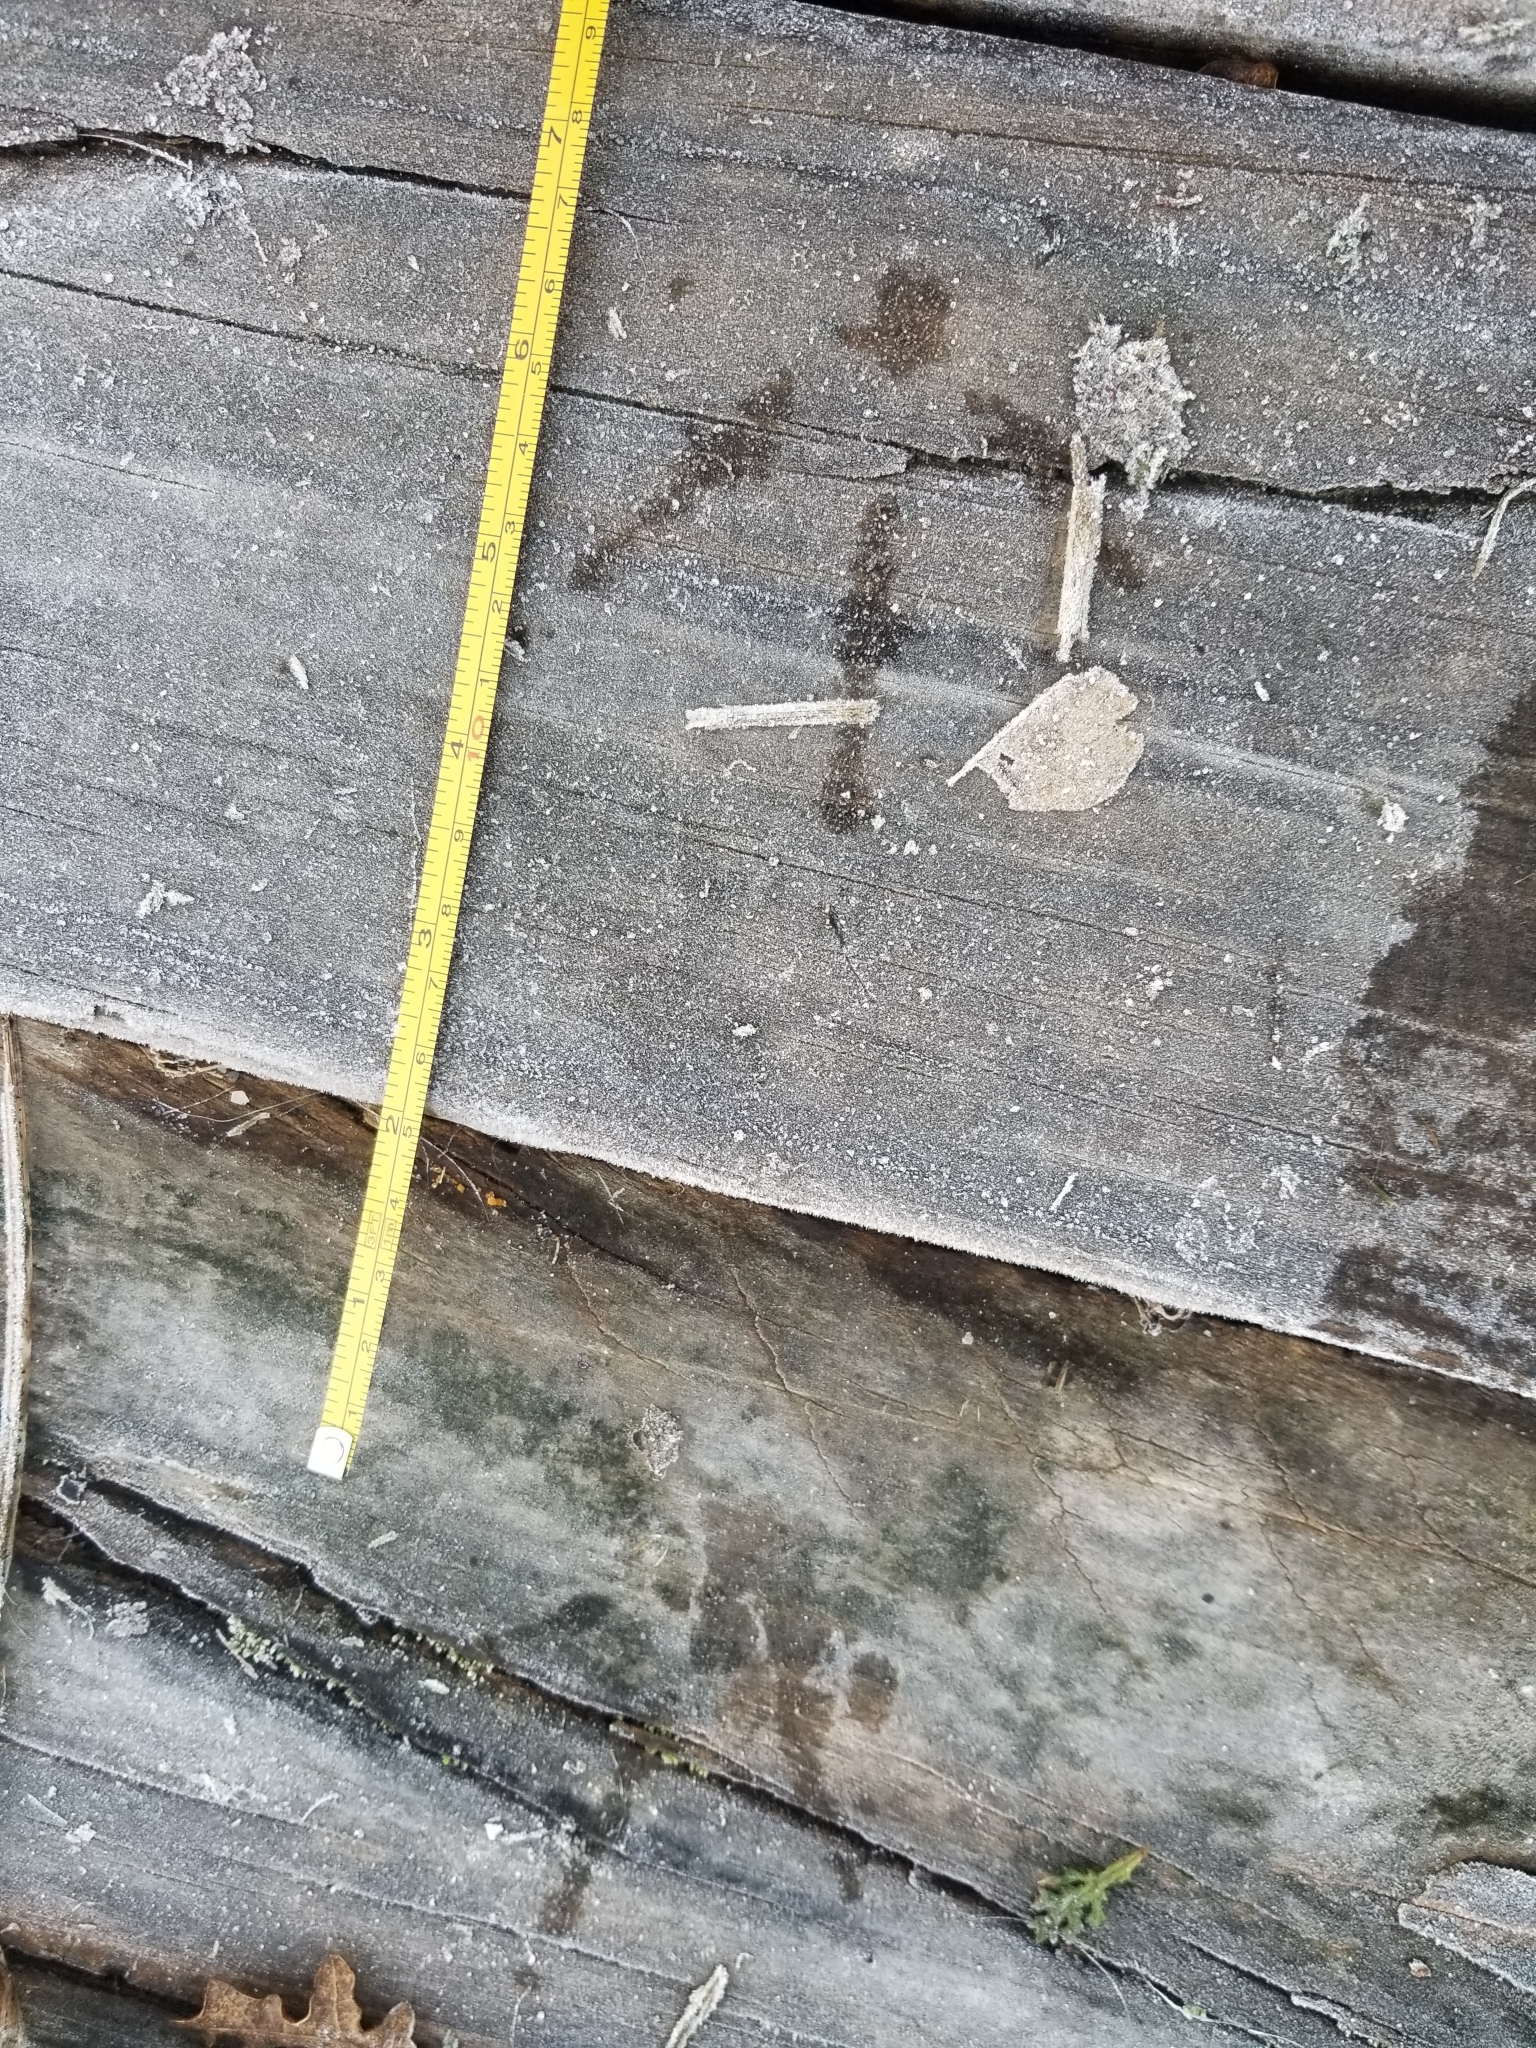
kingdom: Animalia
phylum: Chordata
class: Aves
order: Gruiformes
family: Rallidae
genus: Gallirallus
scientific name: Gallirallus australis
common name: Weka
